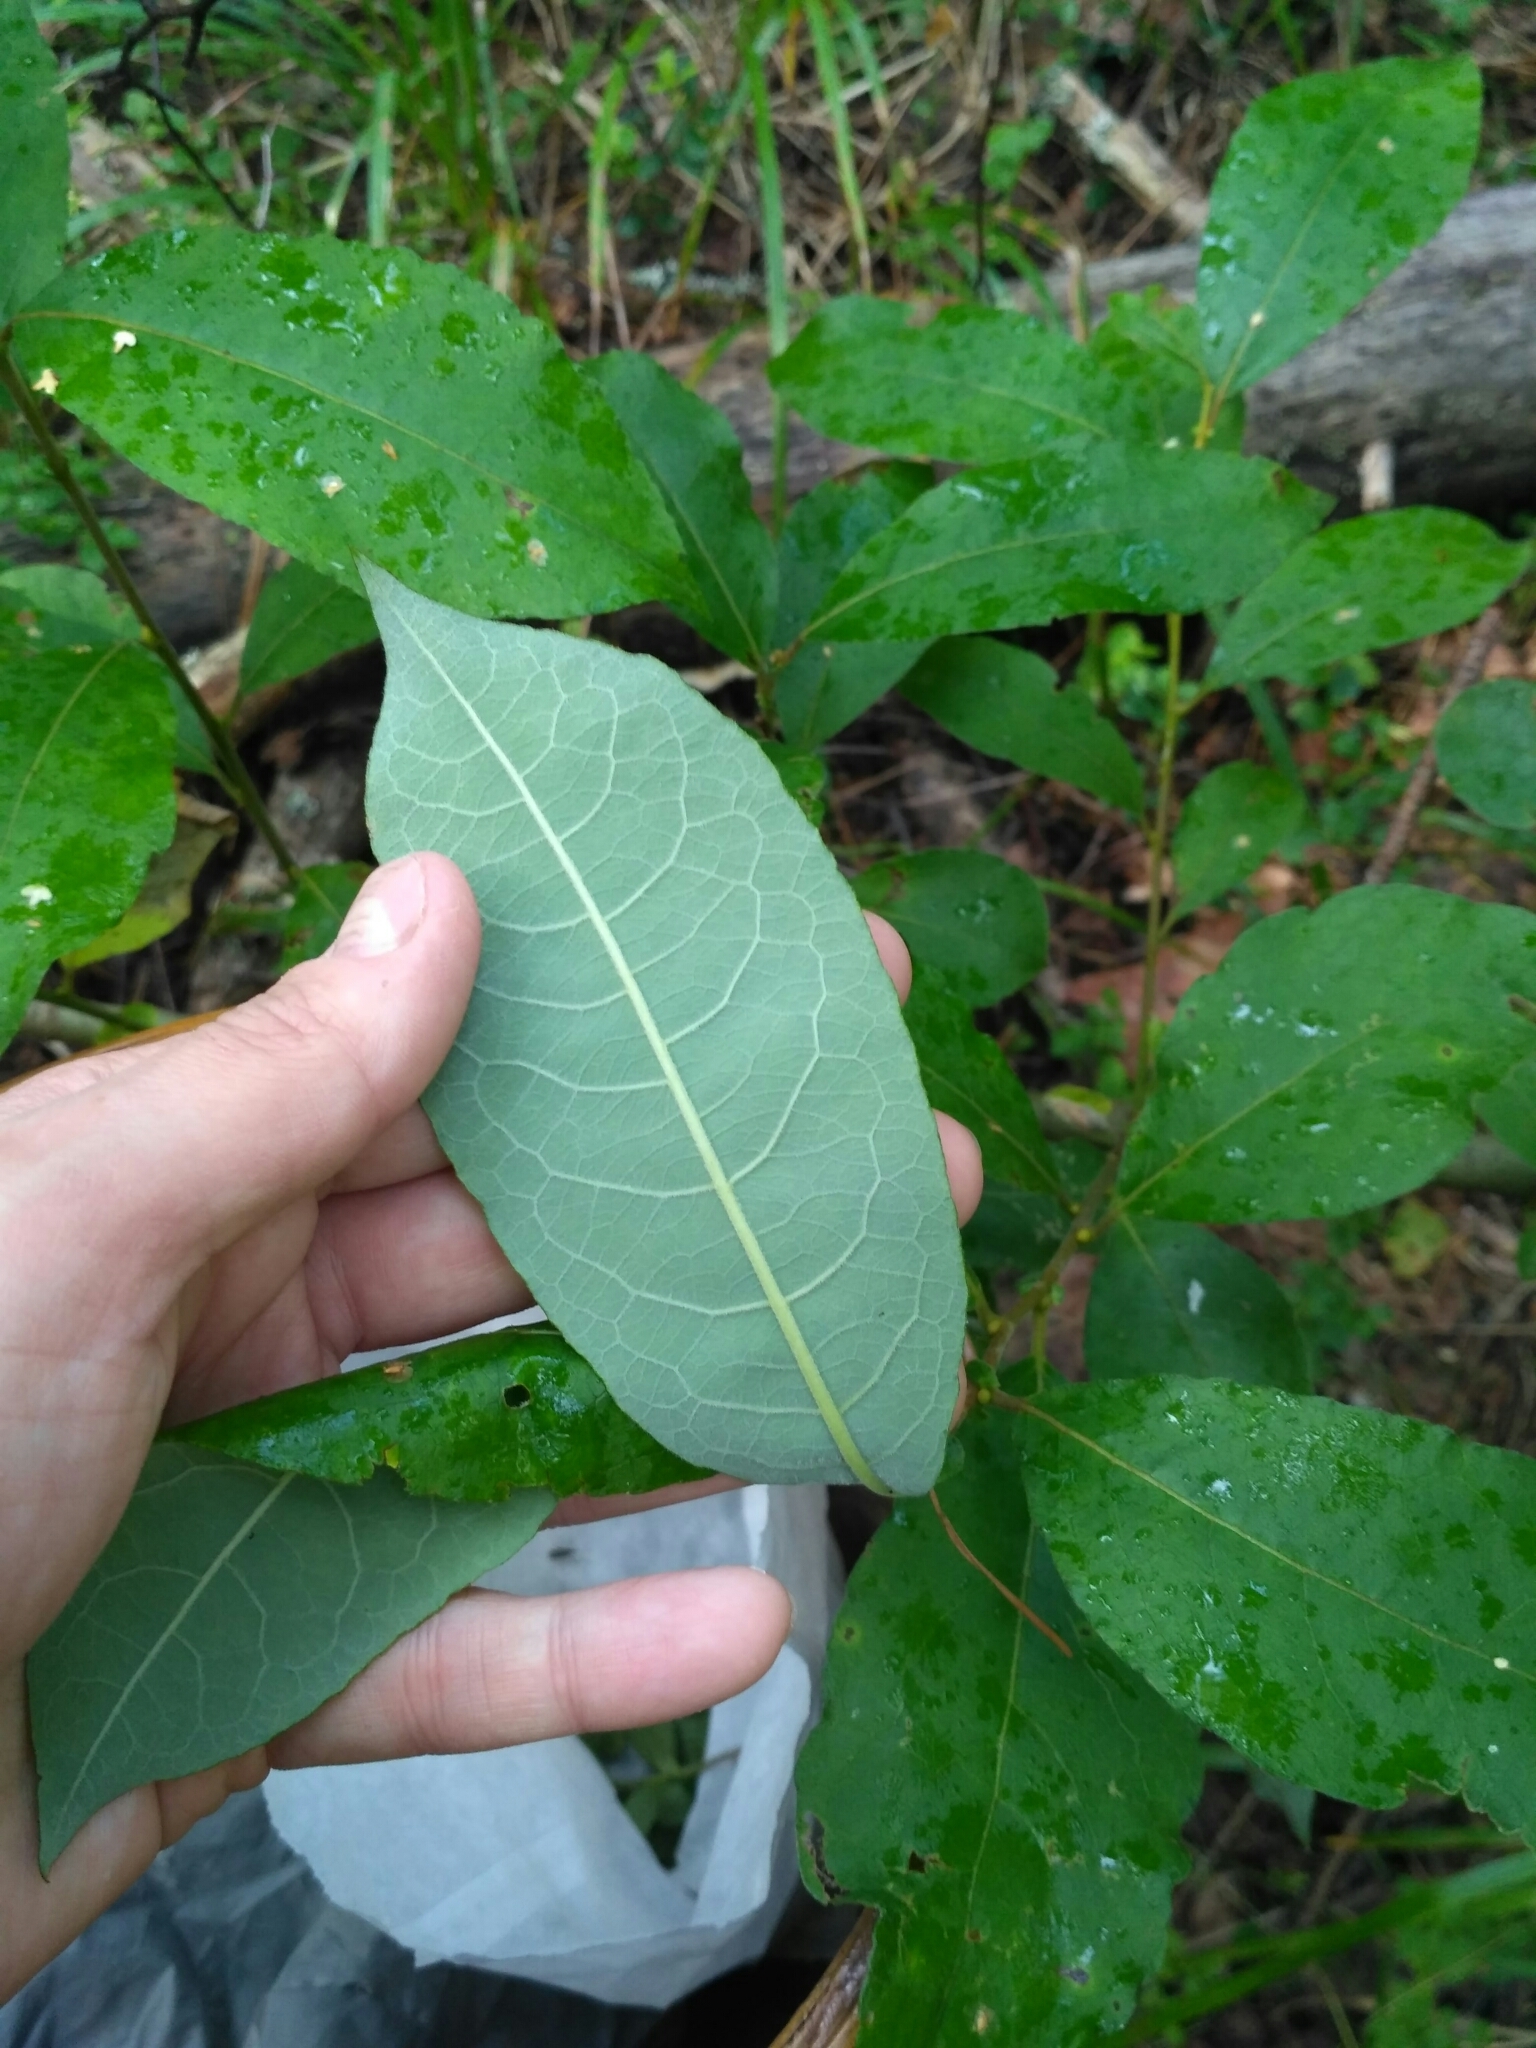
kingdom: Plantae
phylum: Tracheophyta
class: Magnoliopsida
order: Malpighiales
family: Salicaceae
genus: Salix
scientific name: Salix caprea
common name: Goat willow
